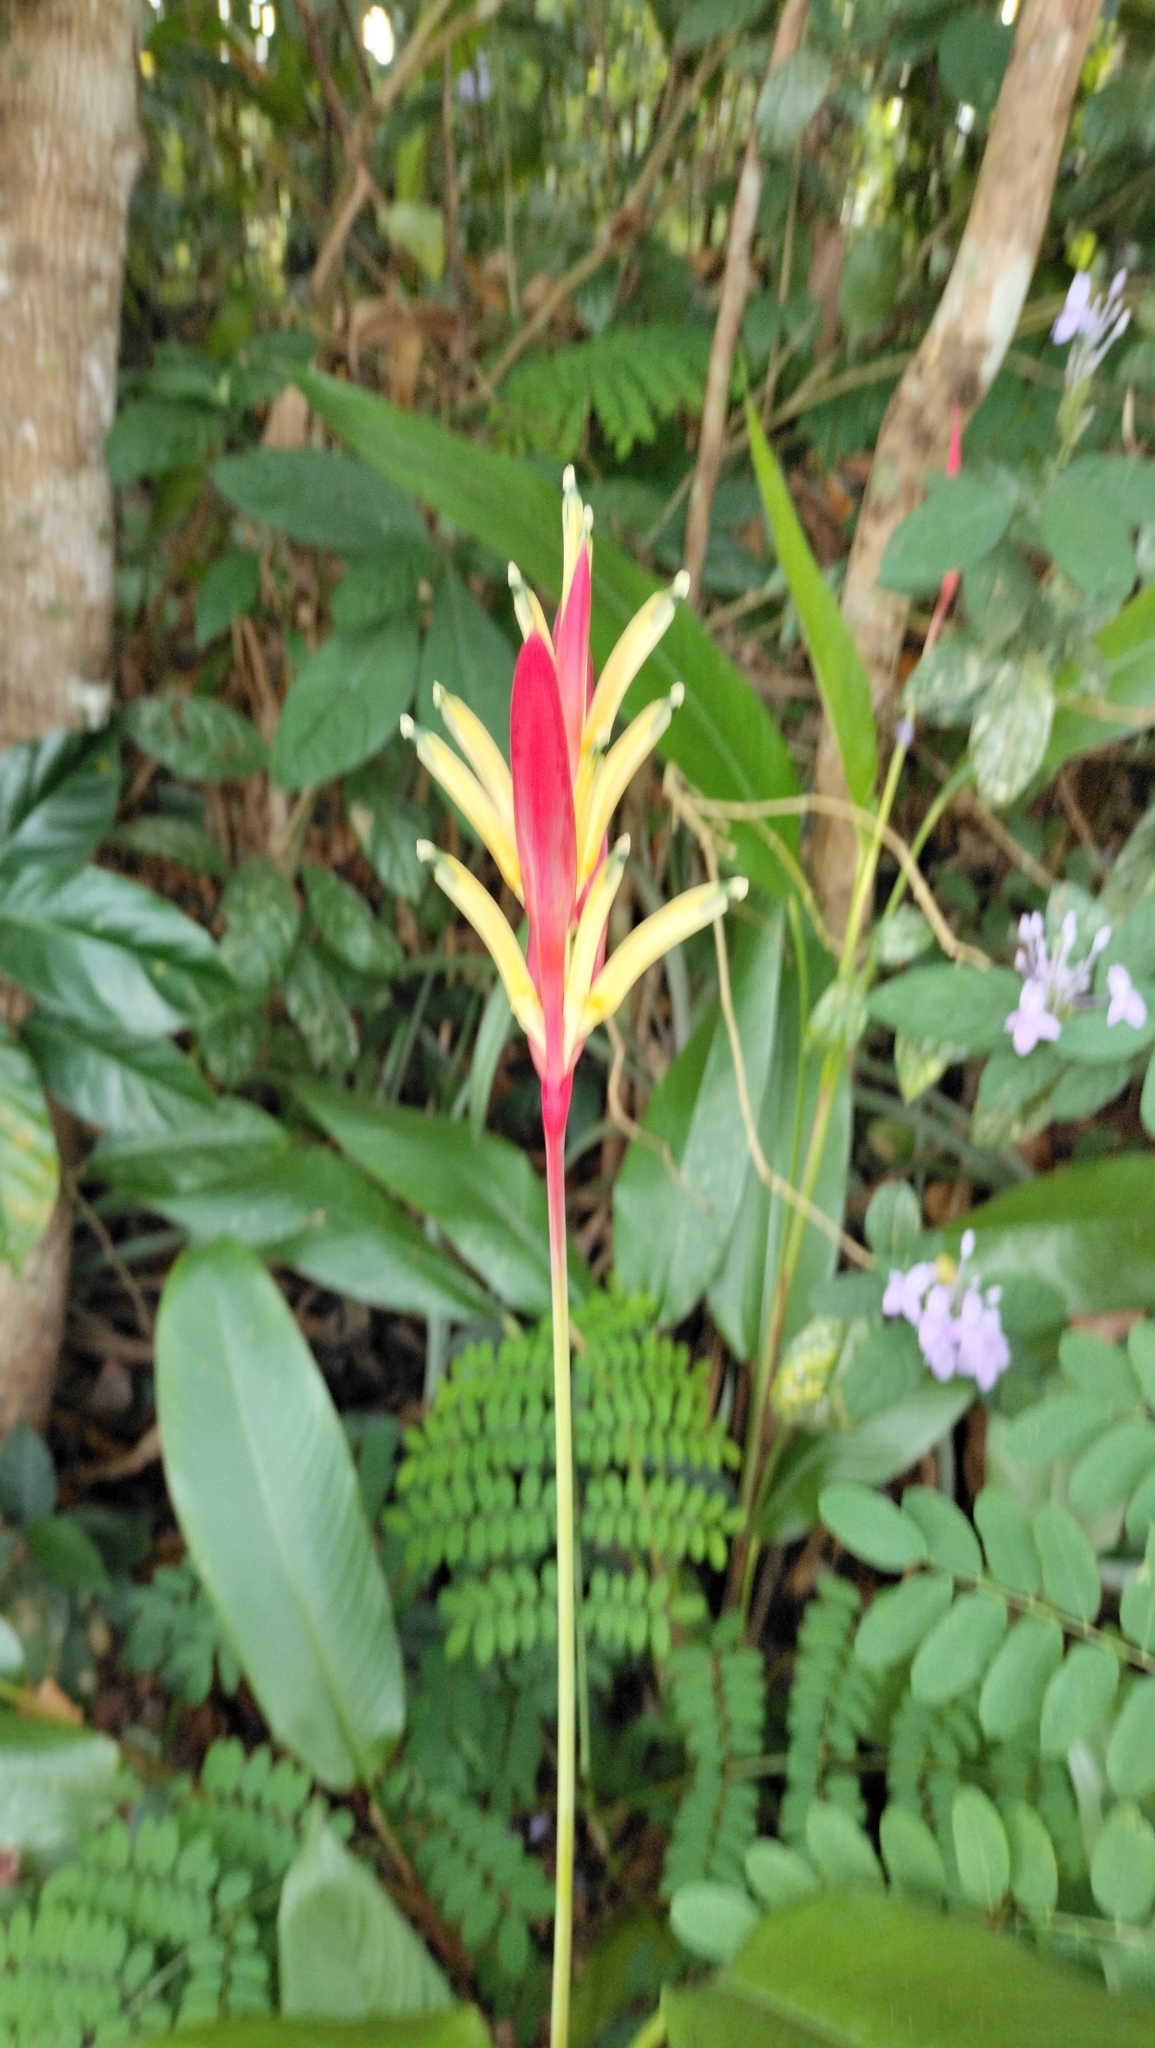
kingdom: Plantae
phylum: Tracheophyta
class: Liliopsida
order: Zingiberales
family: Heliconiaceae
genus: Heliconia
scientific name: Heliconia psittacorum
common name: Parrot's-flower
